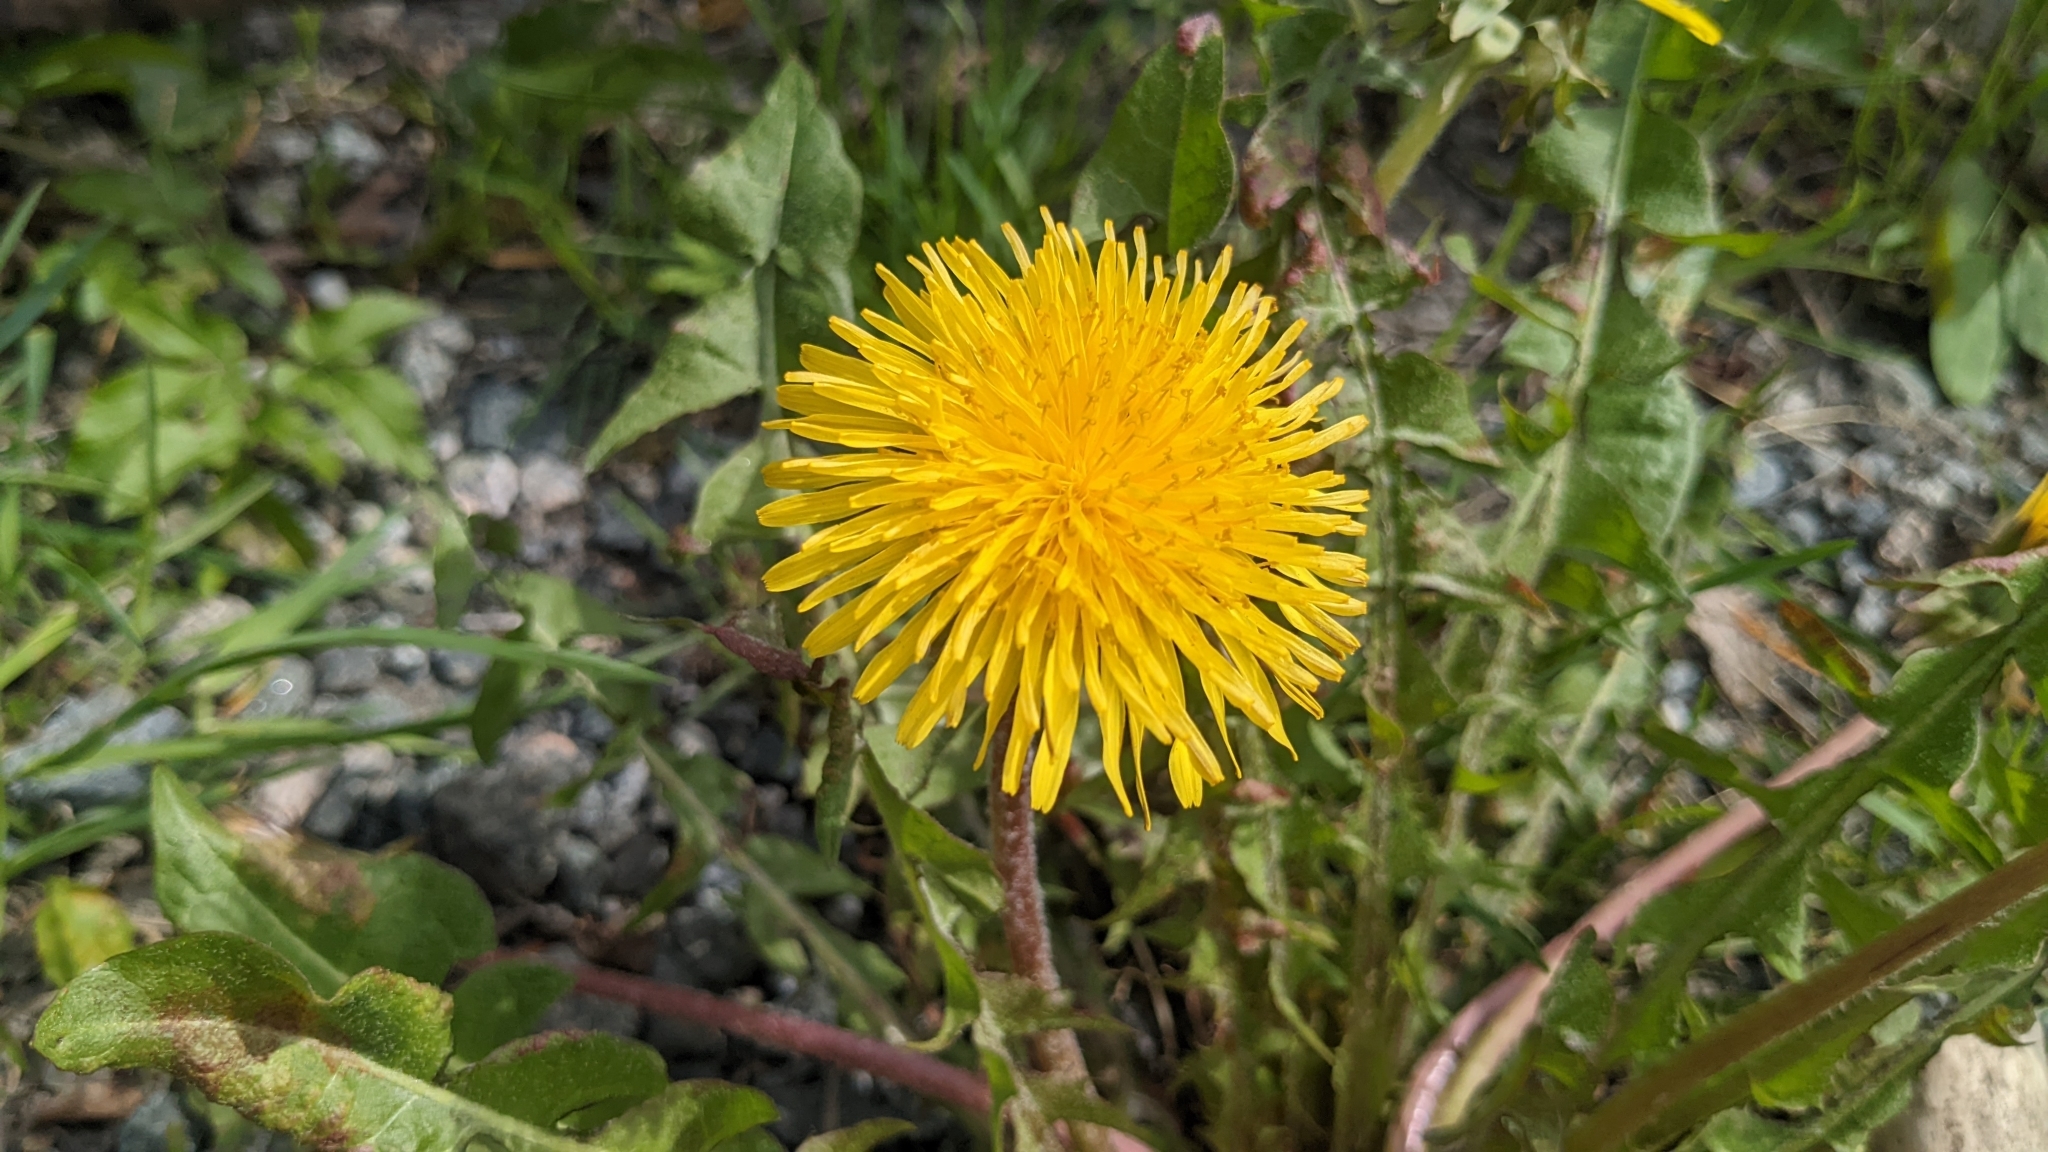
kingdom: Plantae
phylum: Tracheophyta
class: Magnoliopsida
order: Asterales
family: Asteraceae
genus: Taraxacum
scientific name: Taraxacum officinale
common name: Common dandelion
